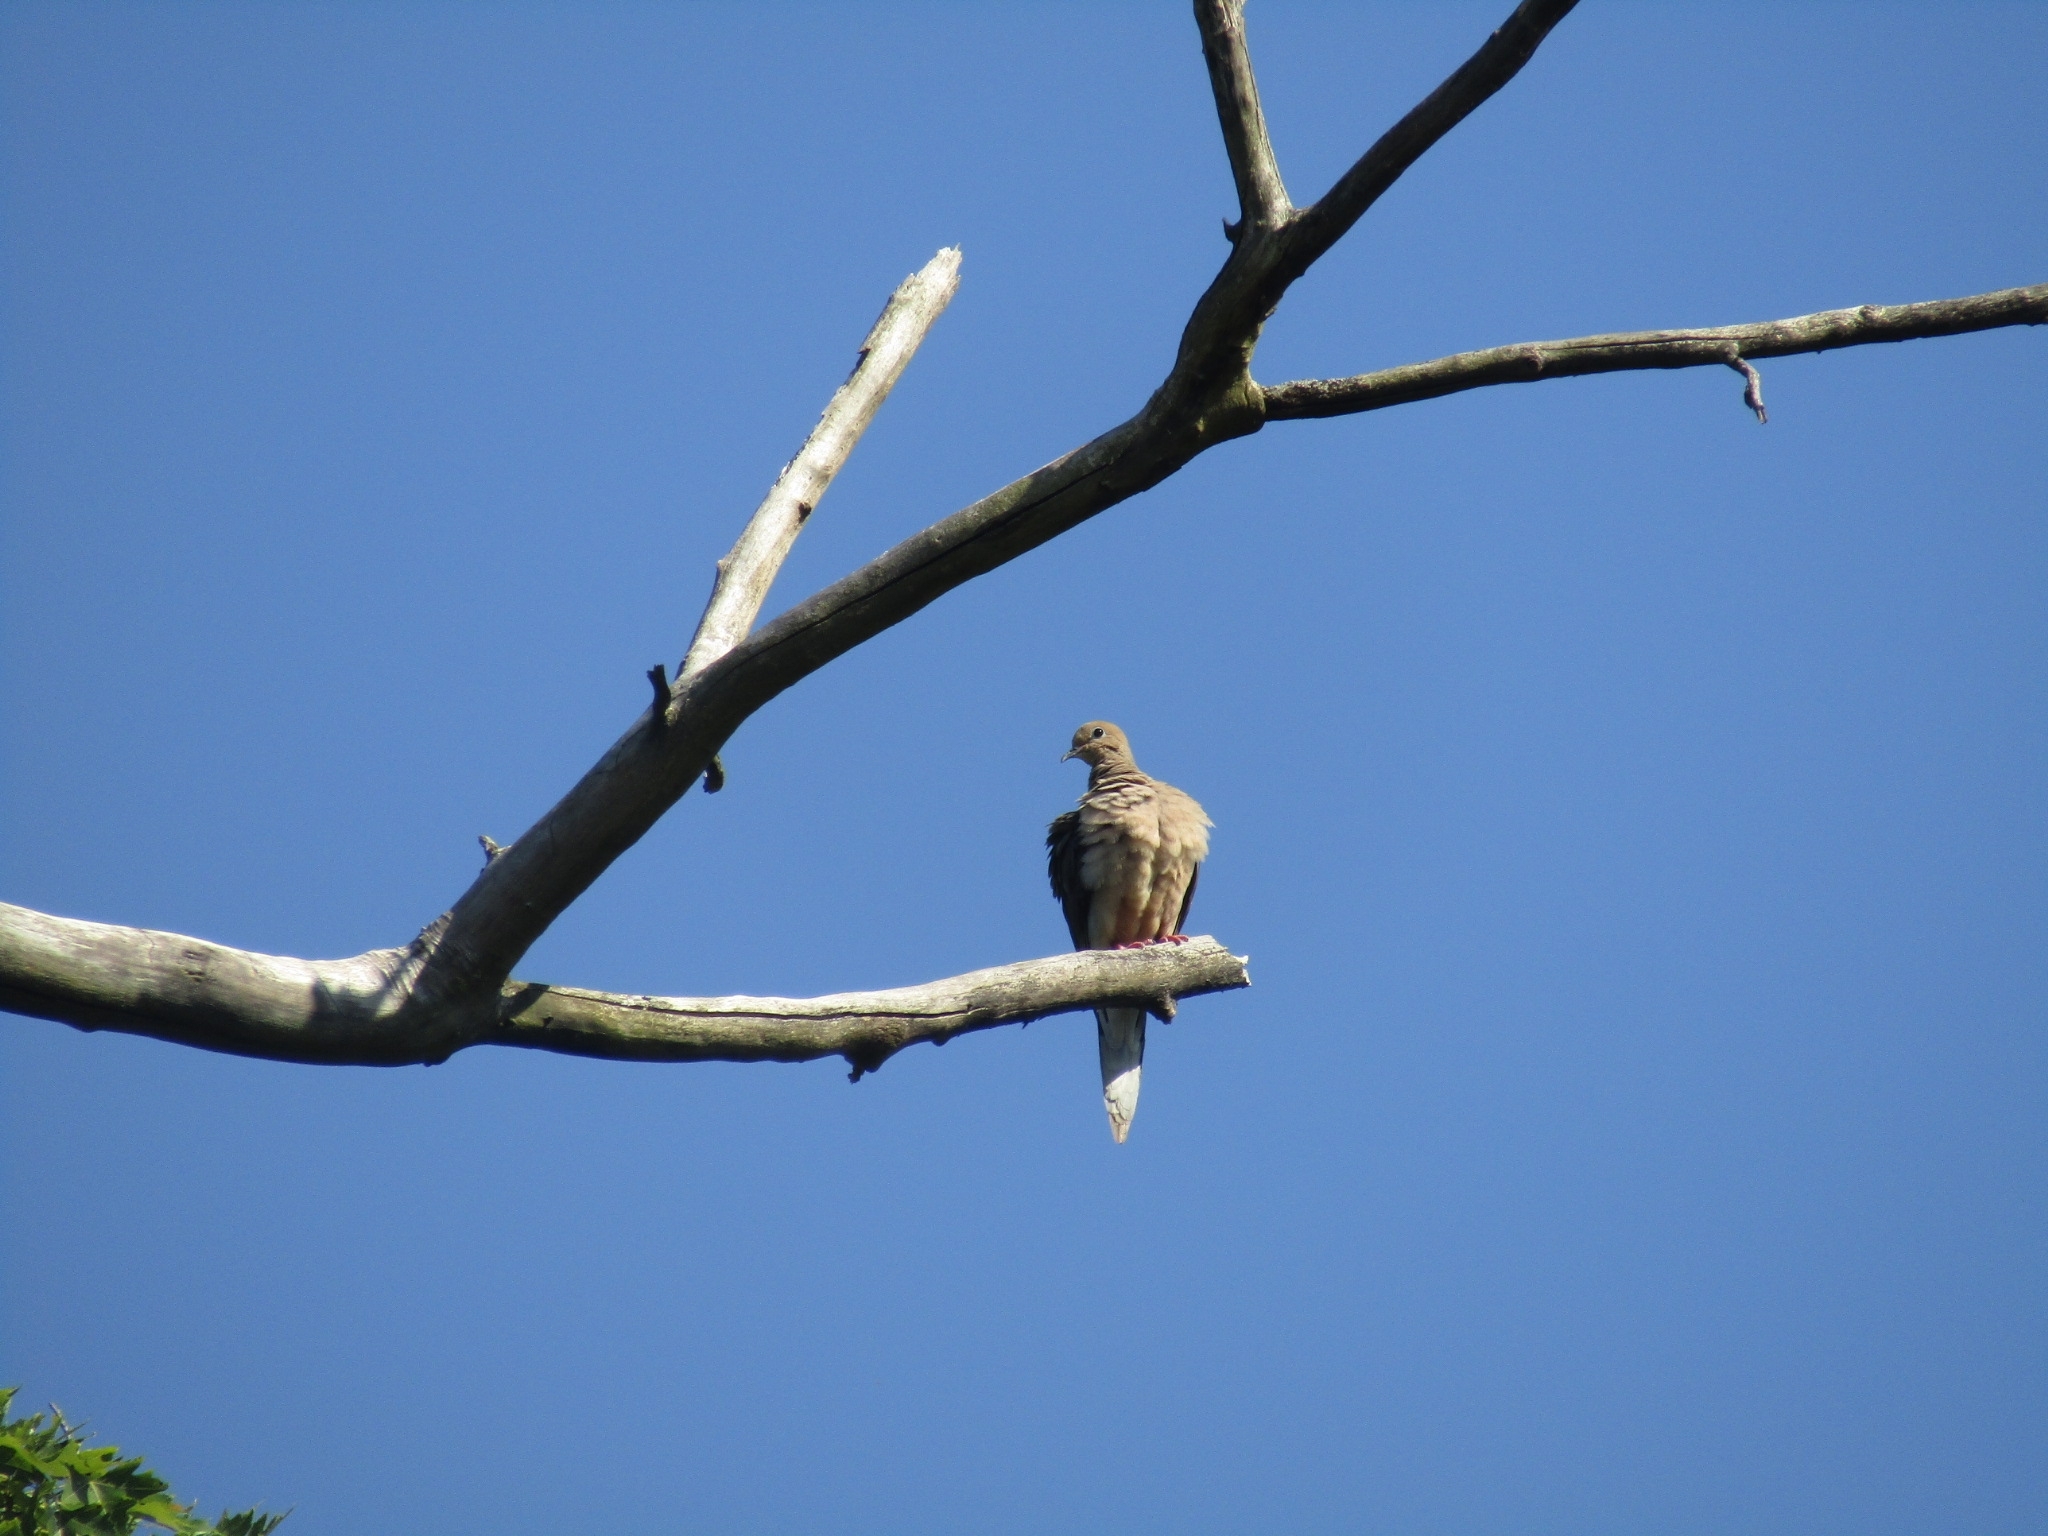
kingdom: Animalia
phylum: Chordata
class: Aves
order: Columbiformes
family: Columbidae
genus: Zenaida
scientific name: Zenaida macroura
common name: Mourning dove
